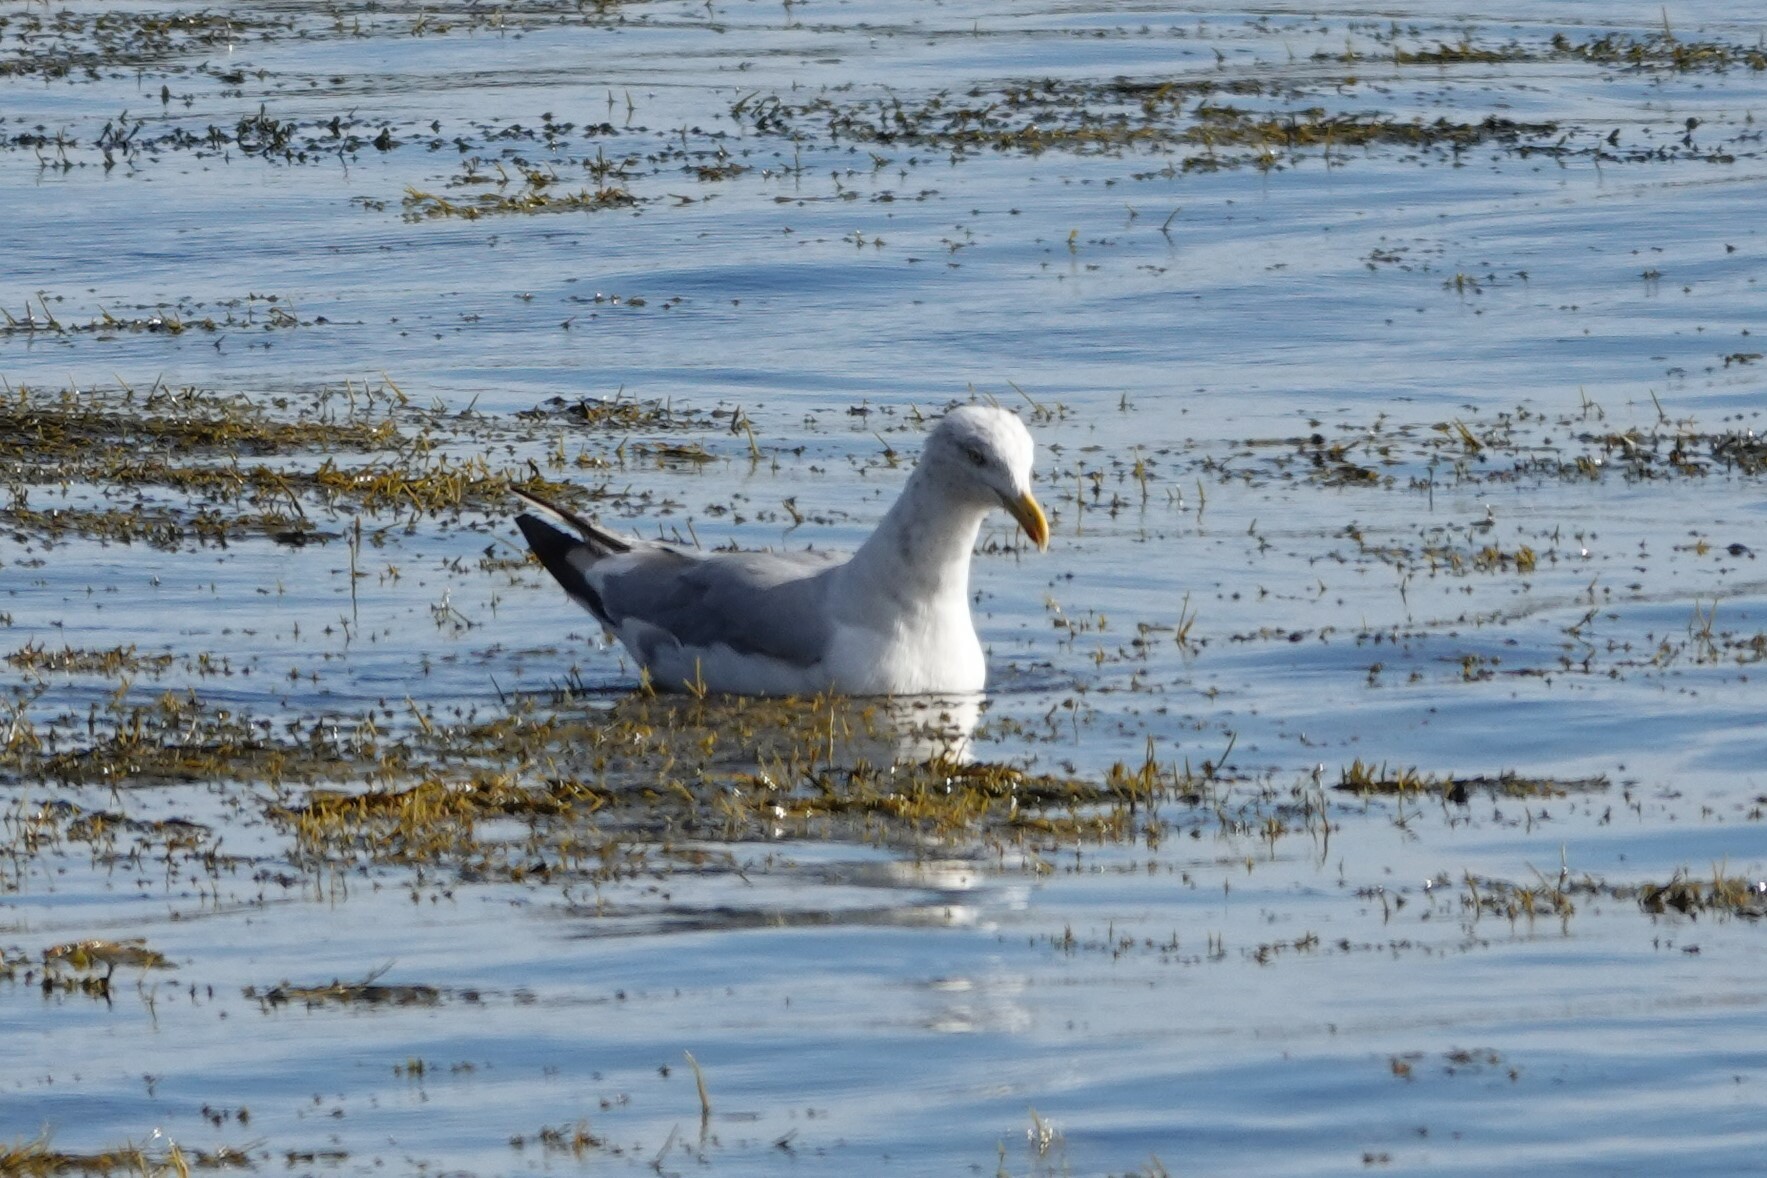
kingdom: Animalia
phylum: Chordata
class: Aves
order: Charadriiformes
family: Laridae
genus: Larus
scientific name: Larus argentatus
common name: Herring gull
